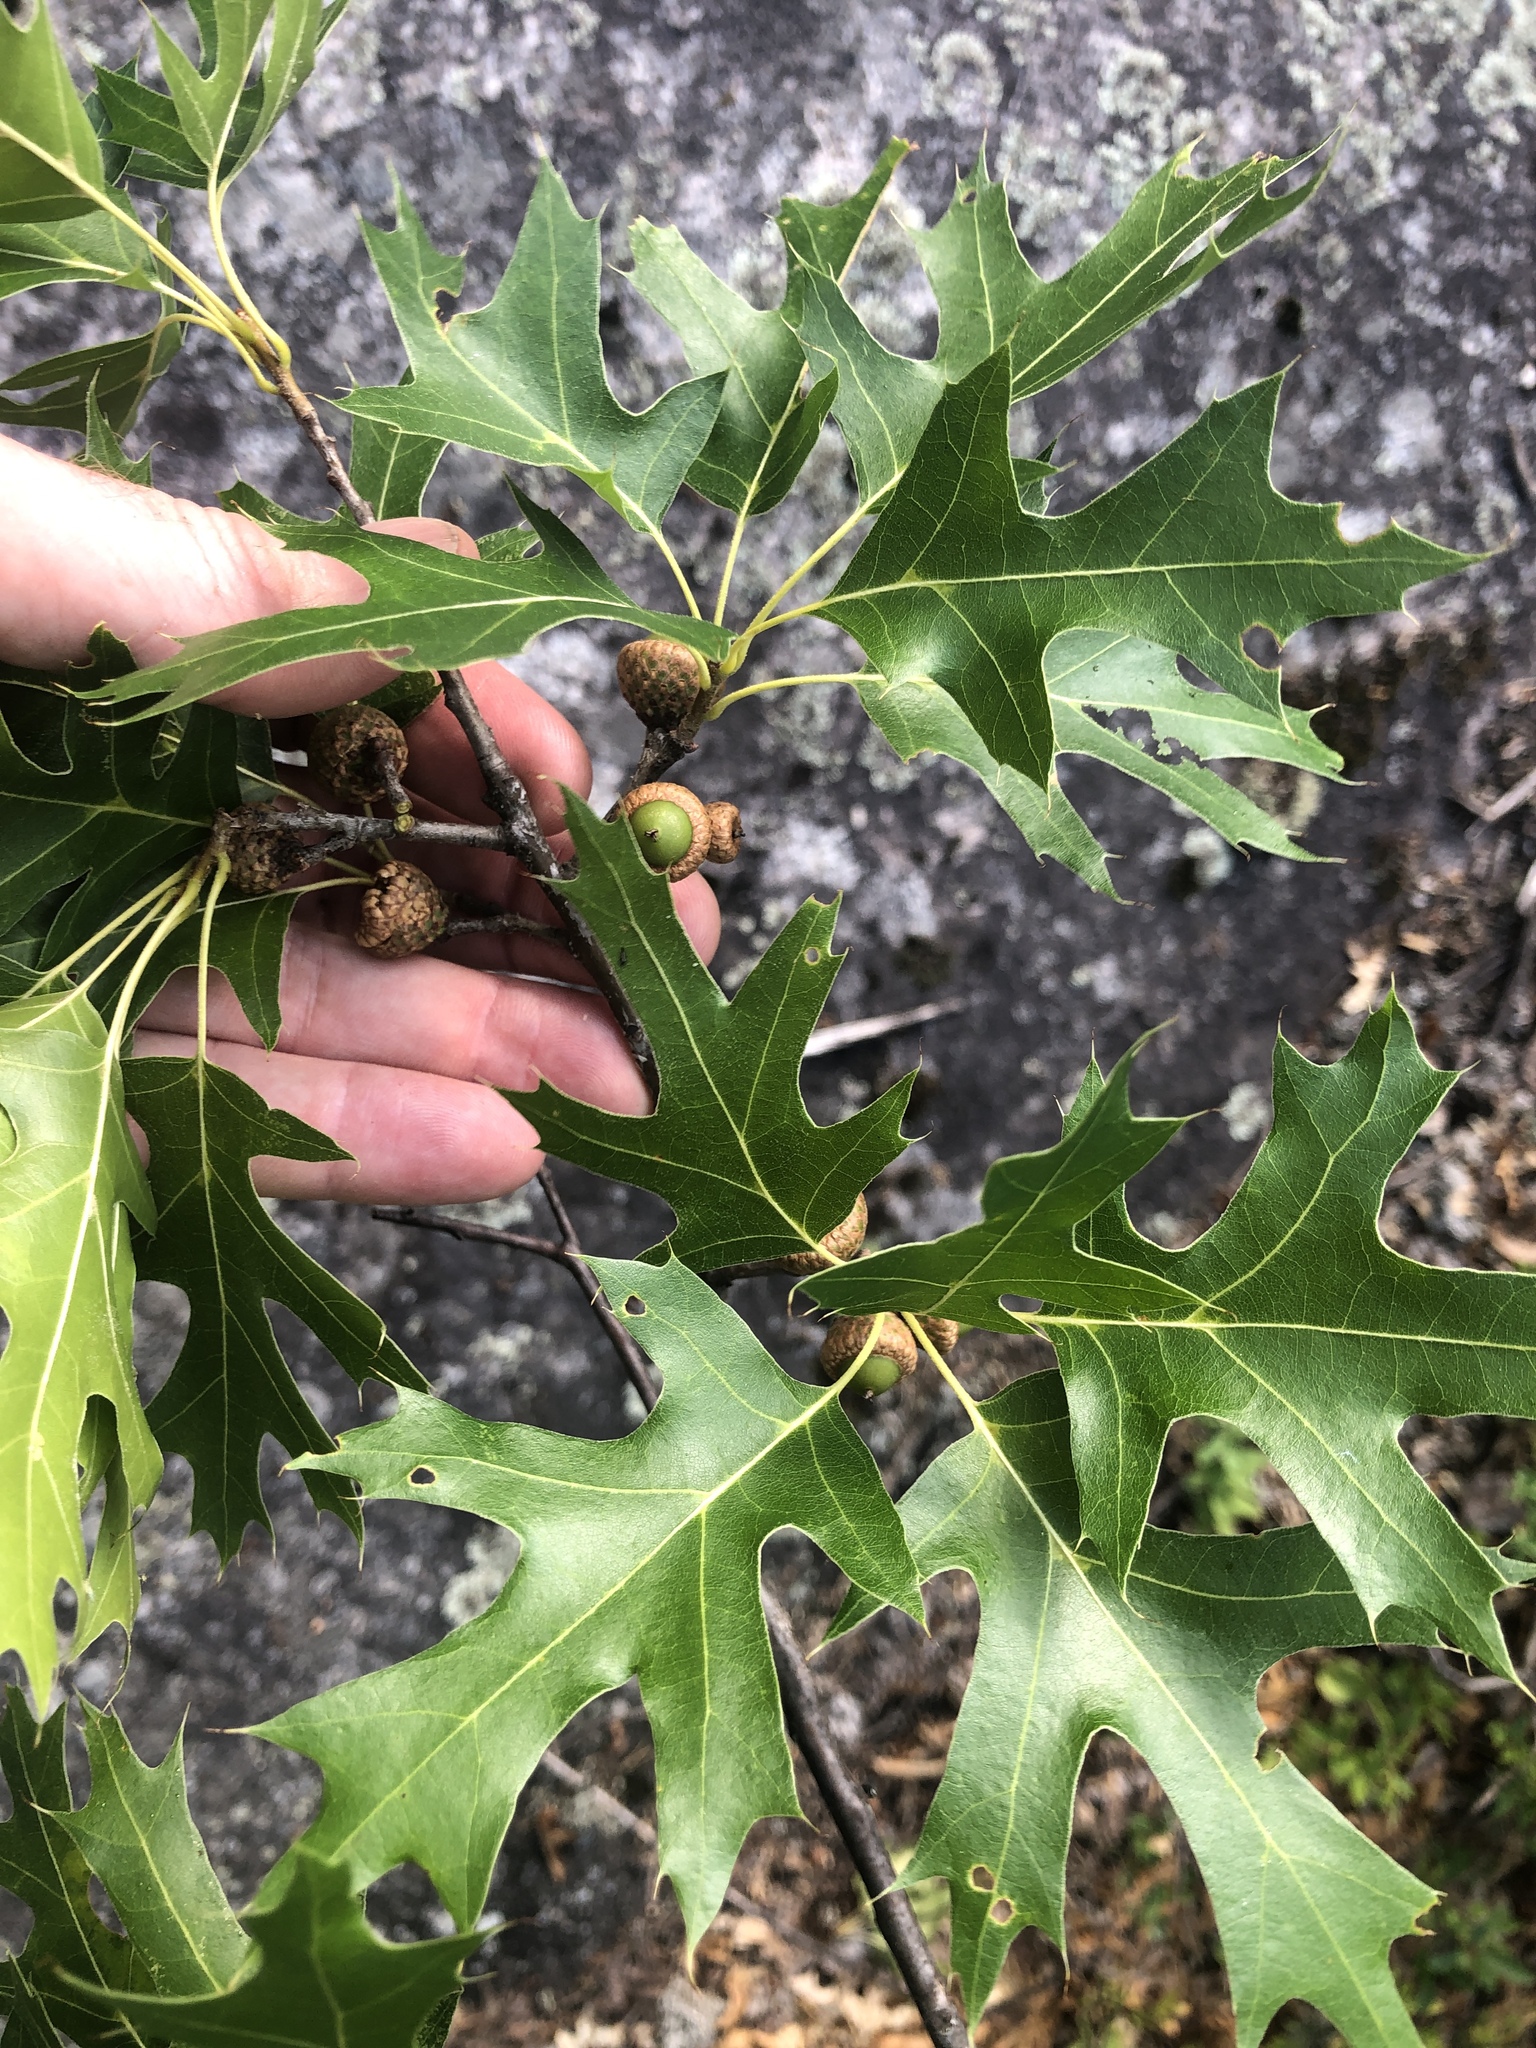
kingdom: Plantae
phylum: Tracheophyta
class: Magnoliopsida
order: Fagales
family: Fagaceae
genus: Quercus
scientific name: Quercus ellipsoidalis
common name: Hill's oak
